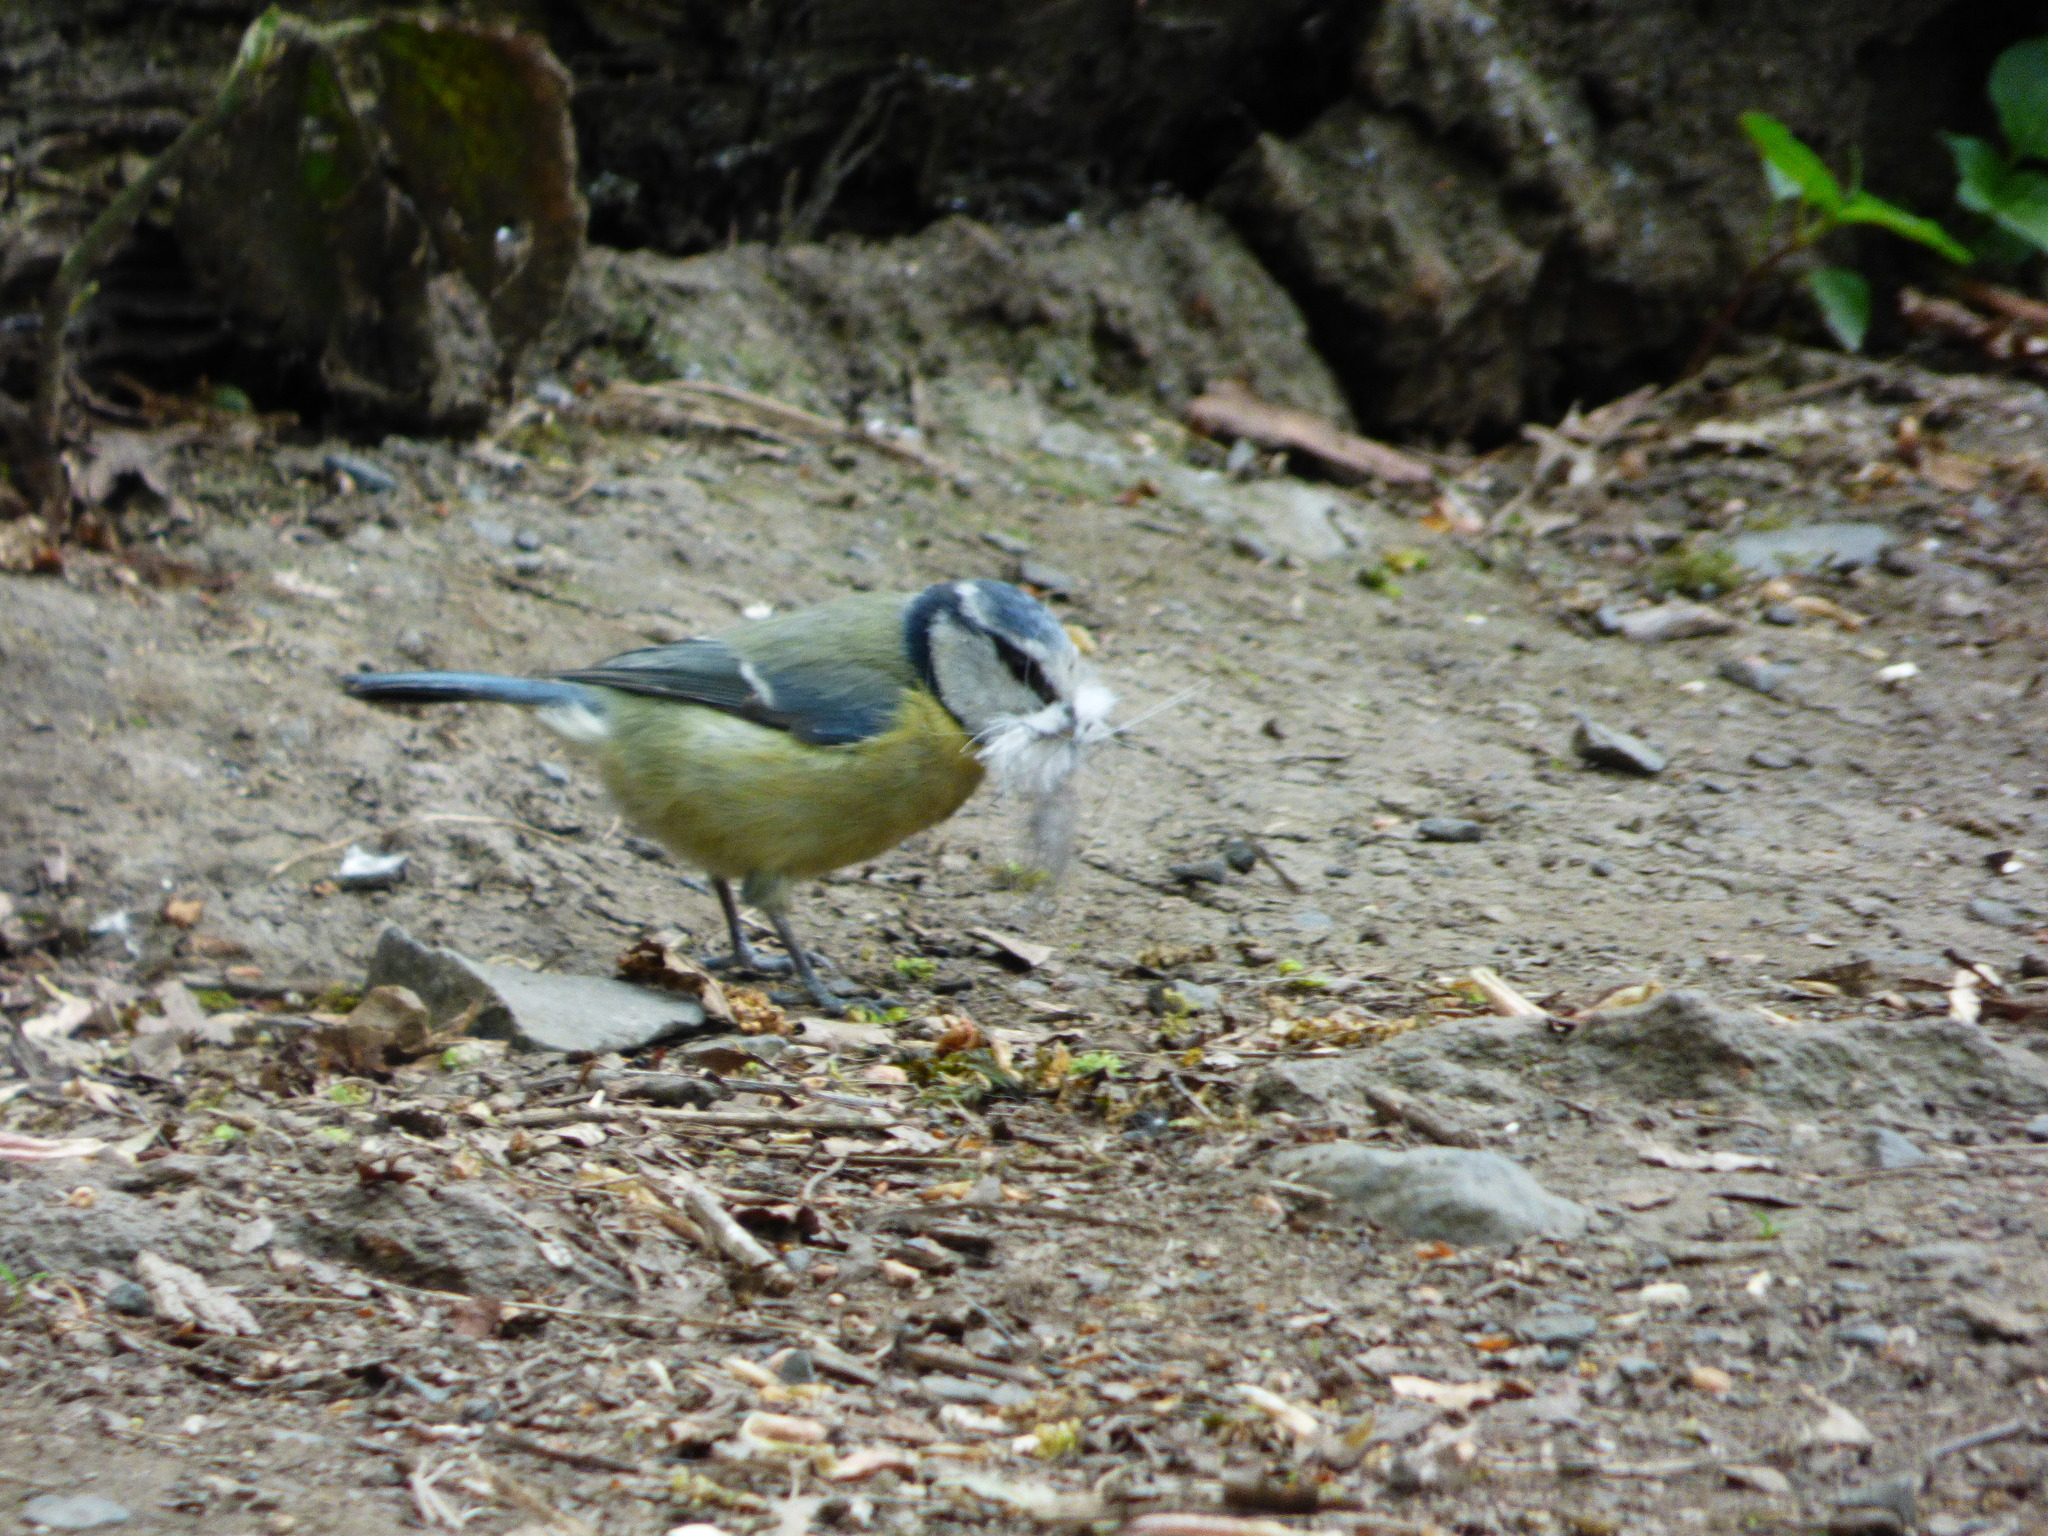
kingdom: Animalia
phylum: Chordata
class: Aves
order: Passeriformes
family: Paridae
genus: Cyanistes
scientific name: Cyanistes caeruleus
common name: Eurasian blue tit
